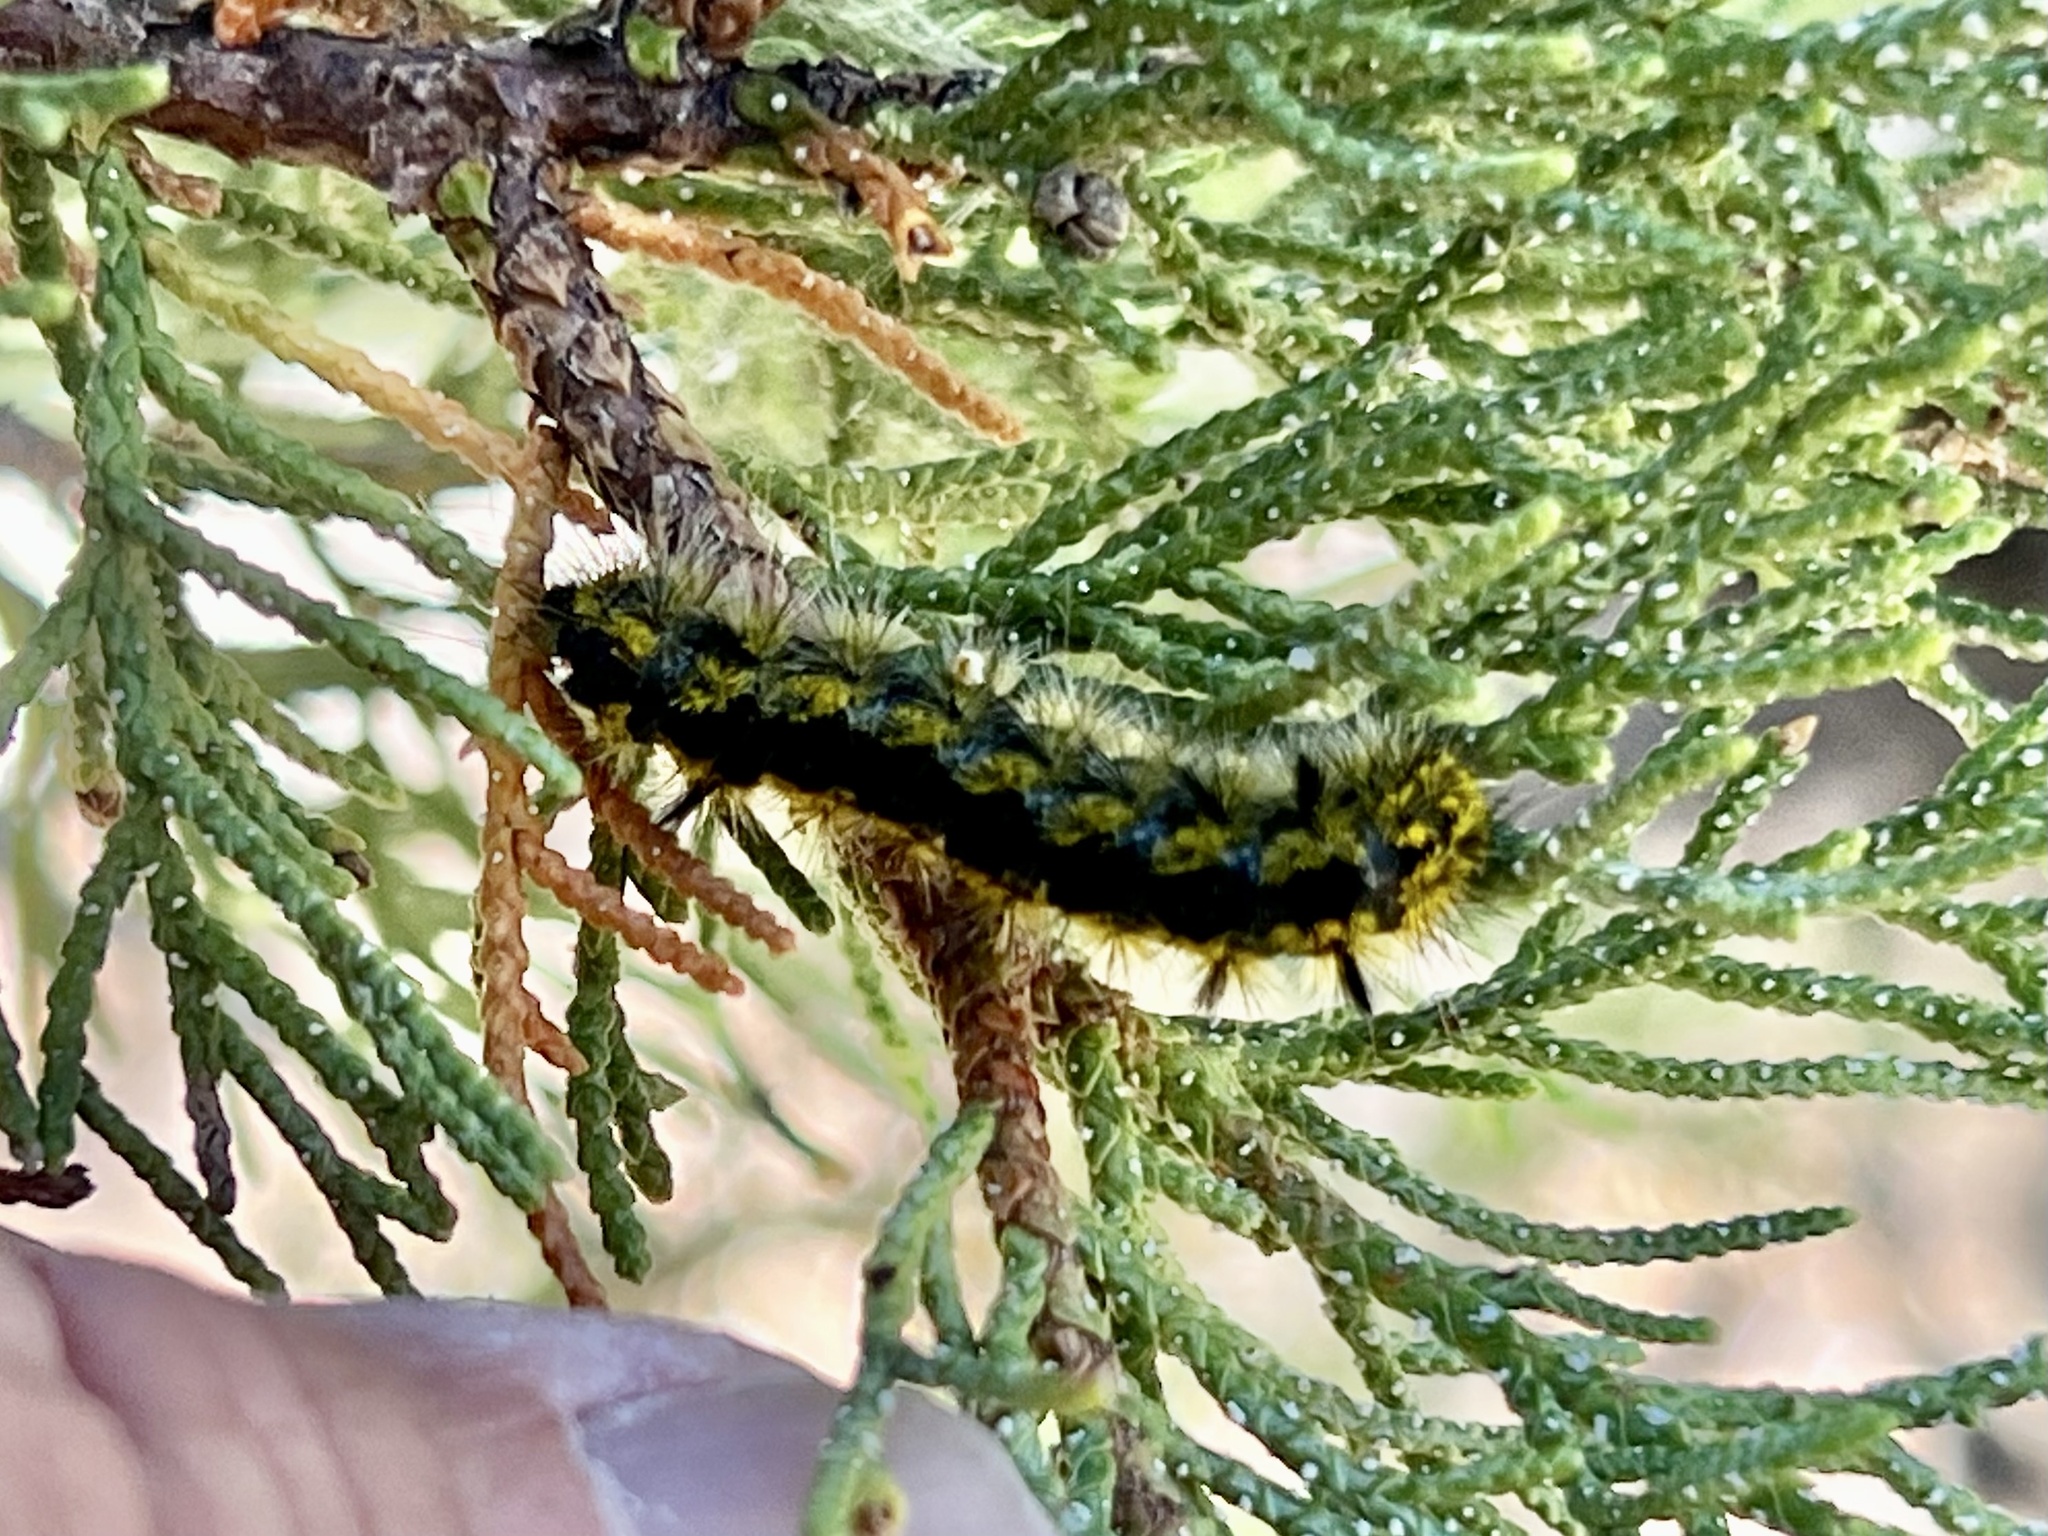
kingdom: Animalia
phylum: Arthropoda
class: Insecta
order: Lepidoptera
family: Erebidae
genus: Lophocampa
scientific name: Lophocampa argentata
